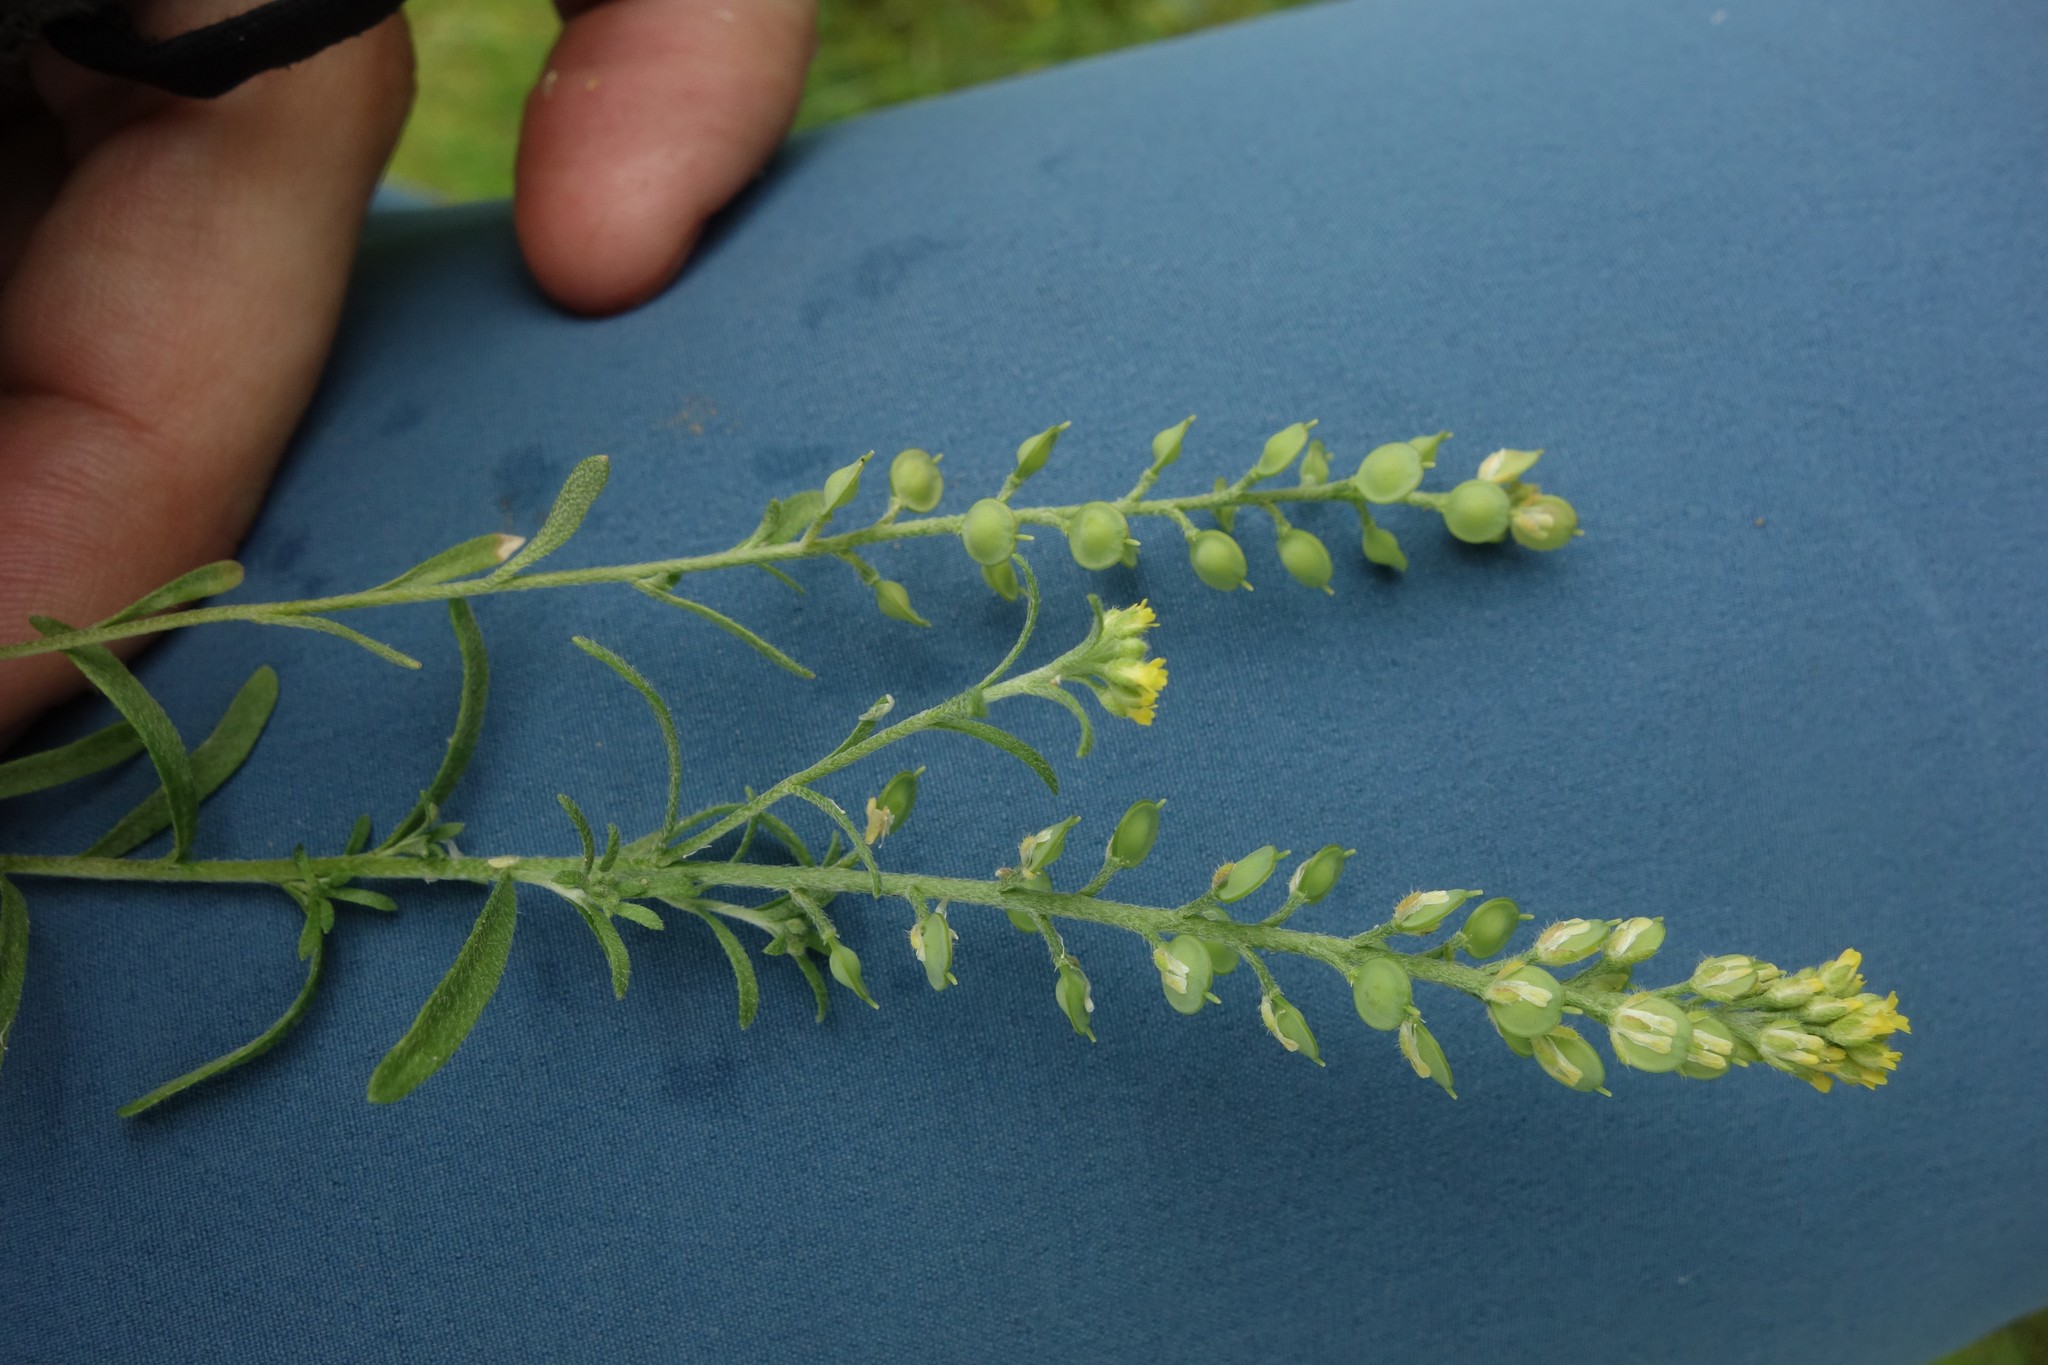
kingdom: Plantae
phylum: Tracheophyta
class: Magnoliopsida
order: Brassicales
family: Brassicaceae
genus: Alyssum
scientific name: Alyssum turkestanicum
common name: Desert alyssum
